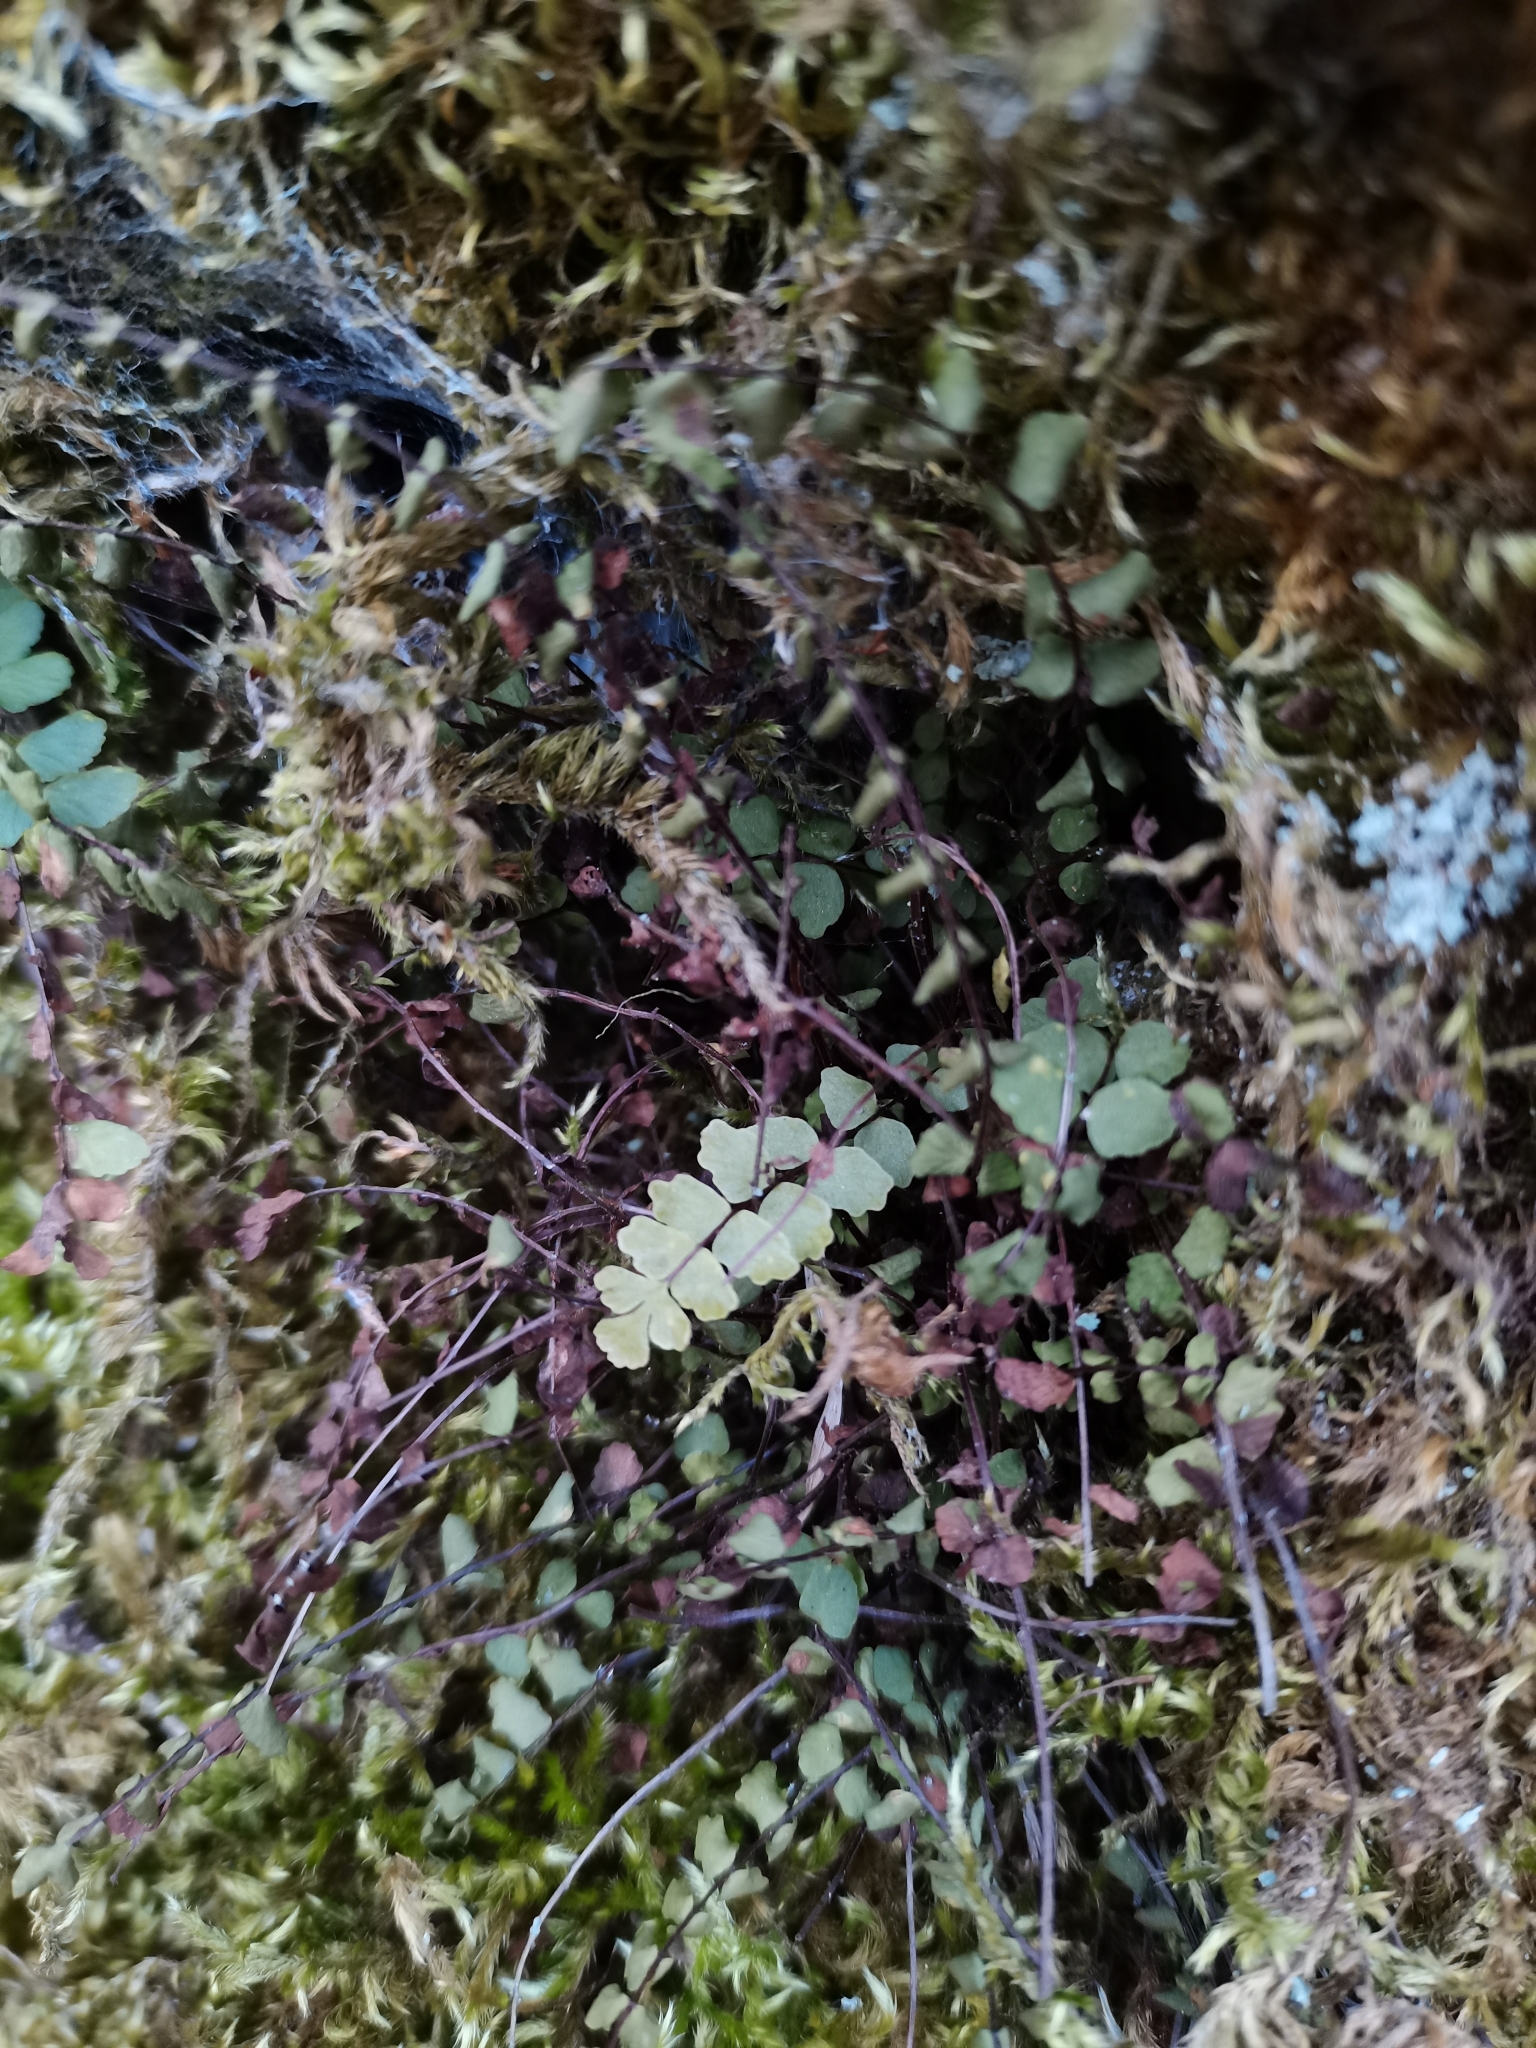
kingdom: Plantae
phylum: Tracheophyta
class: Polypodiopsida
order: Polypodiales
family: Aspleniaceae
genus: Asplenium
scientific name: Asplenium trichomanes
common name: Maidenhair spleenwort
